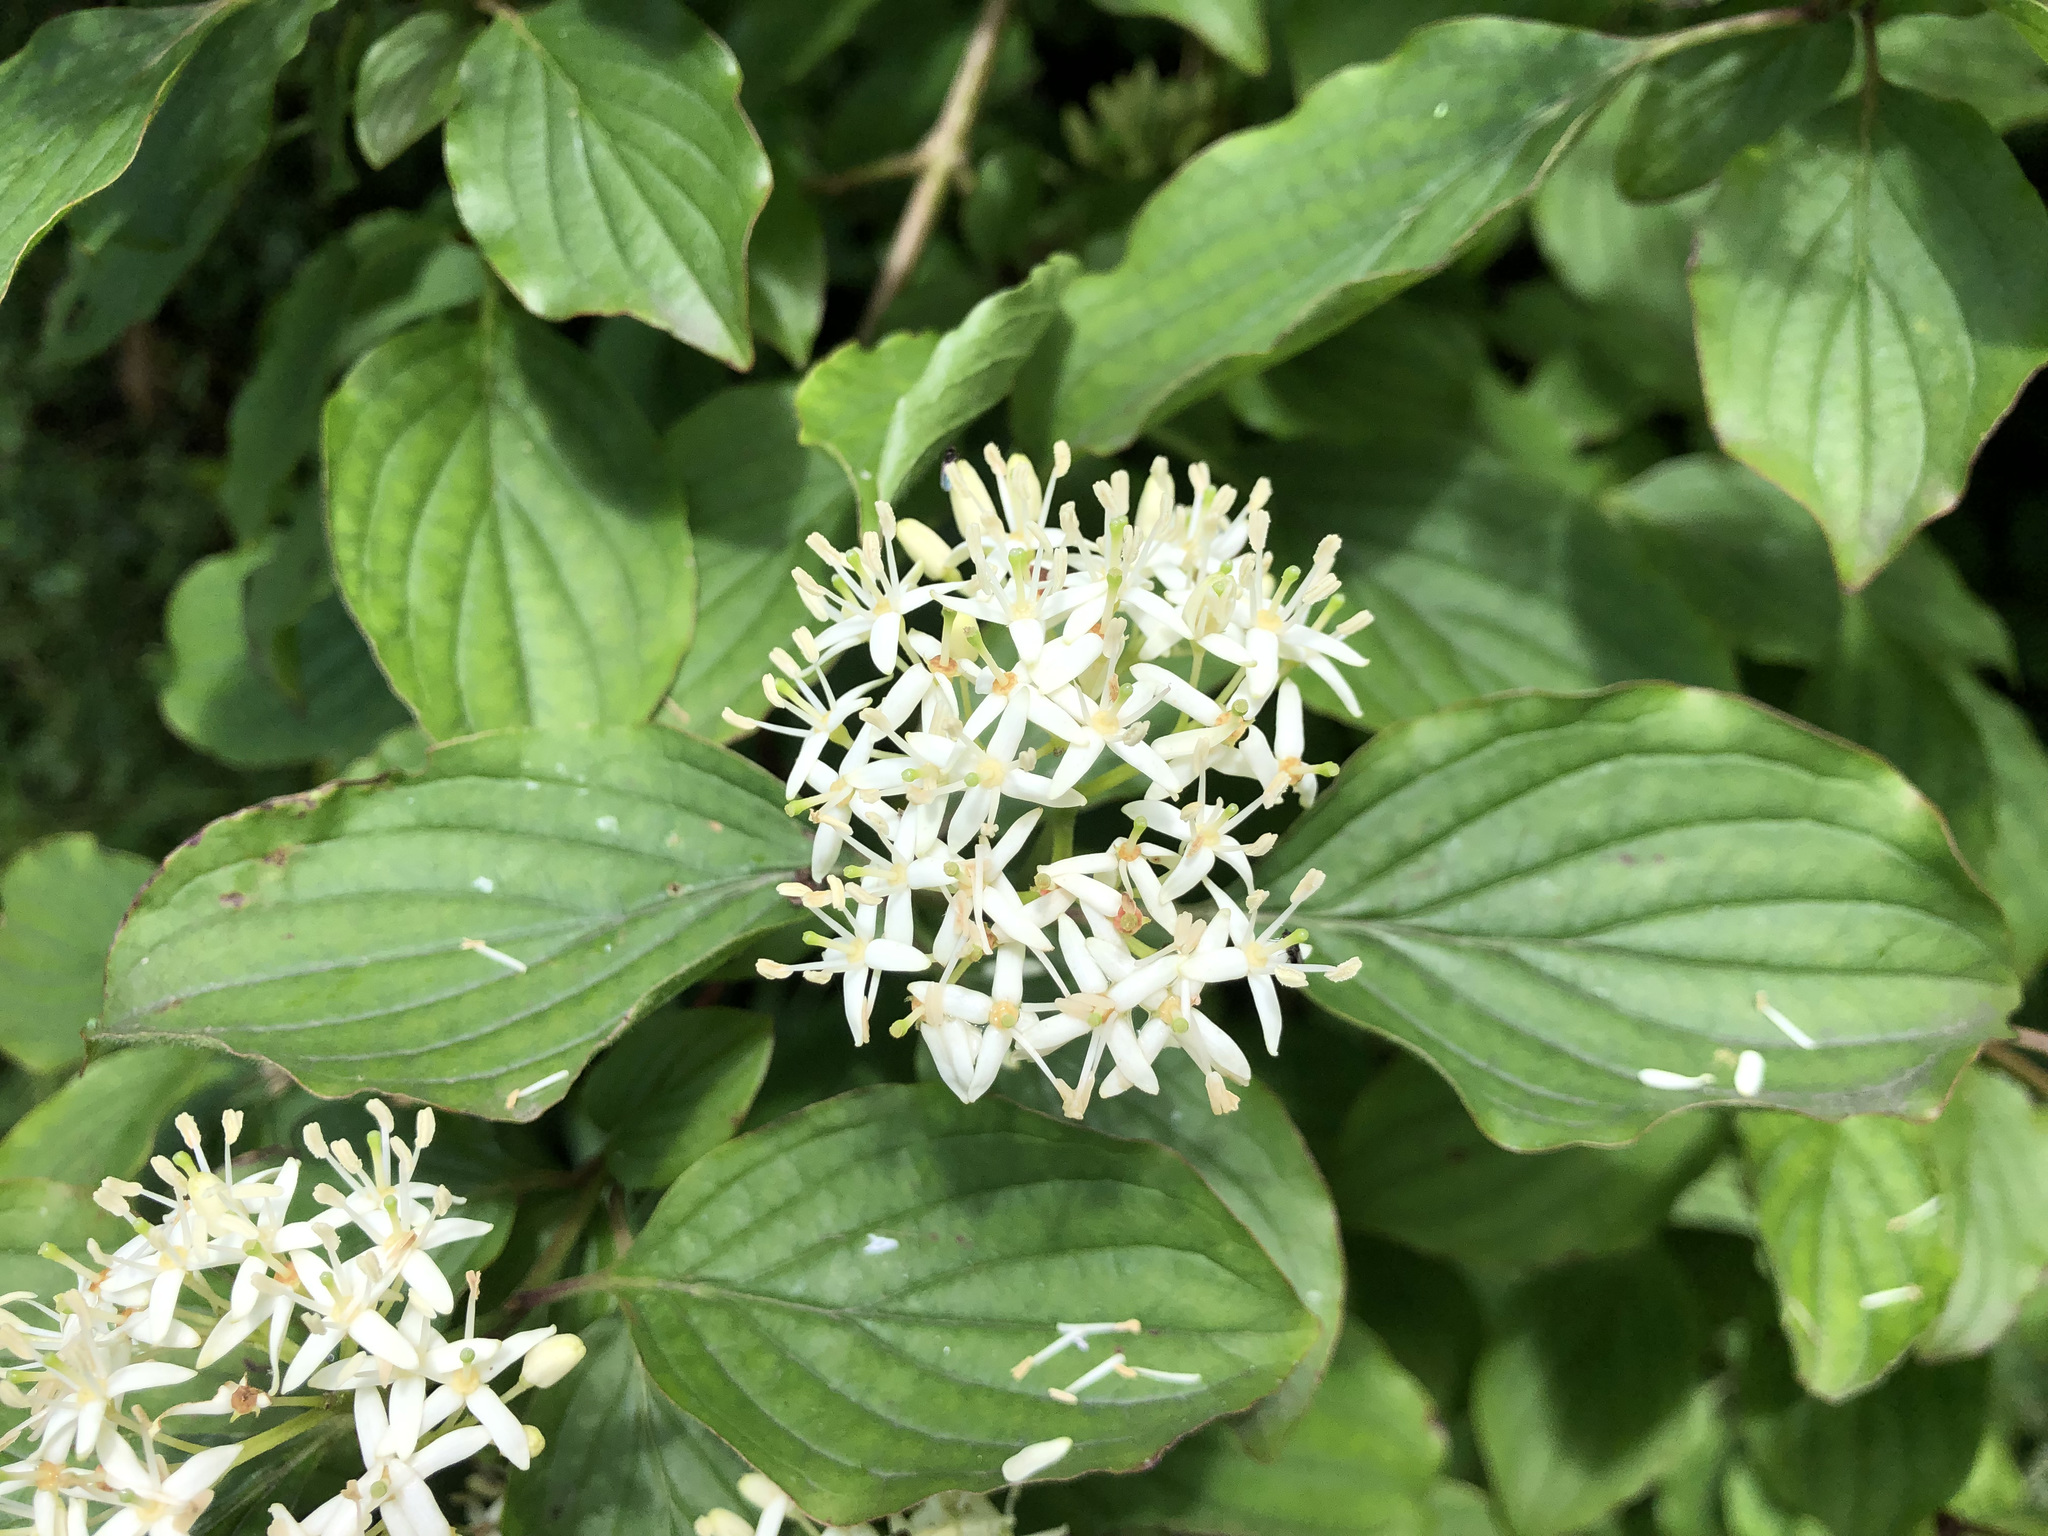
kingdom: Plantae
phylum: Tracheophyta
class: Magnoliopsida
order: Cornales
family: Cornaceae
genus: Cornus
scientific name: Cornus sanguinea
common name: Dogwood
